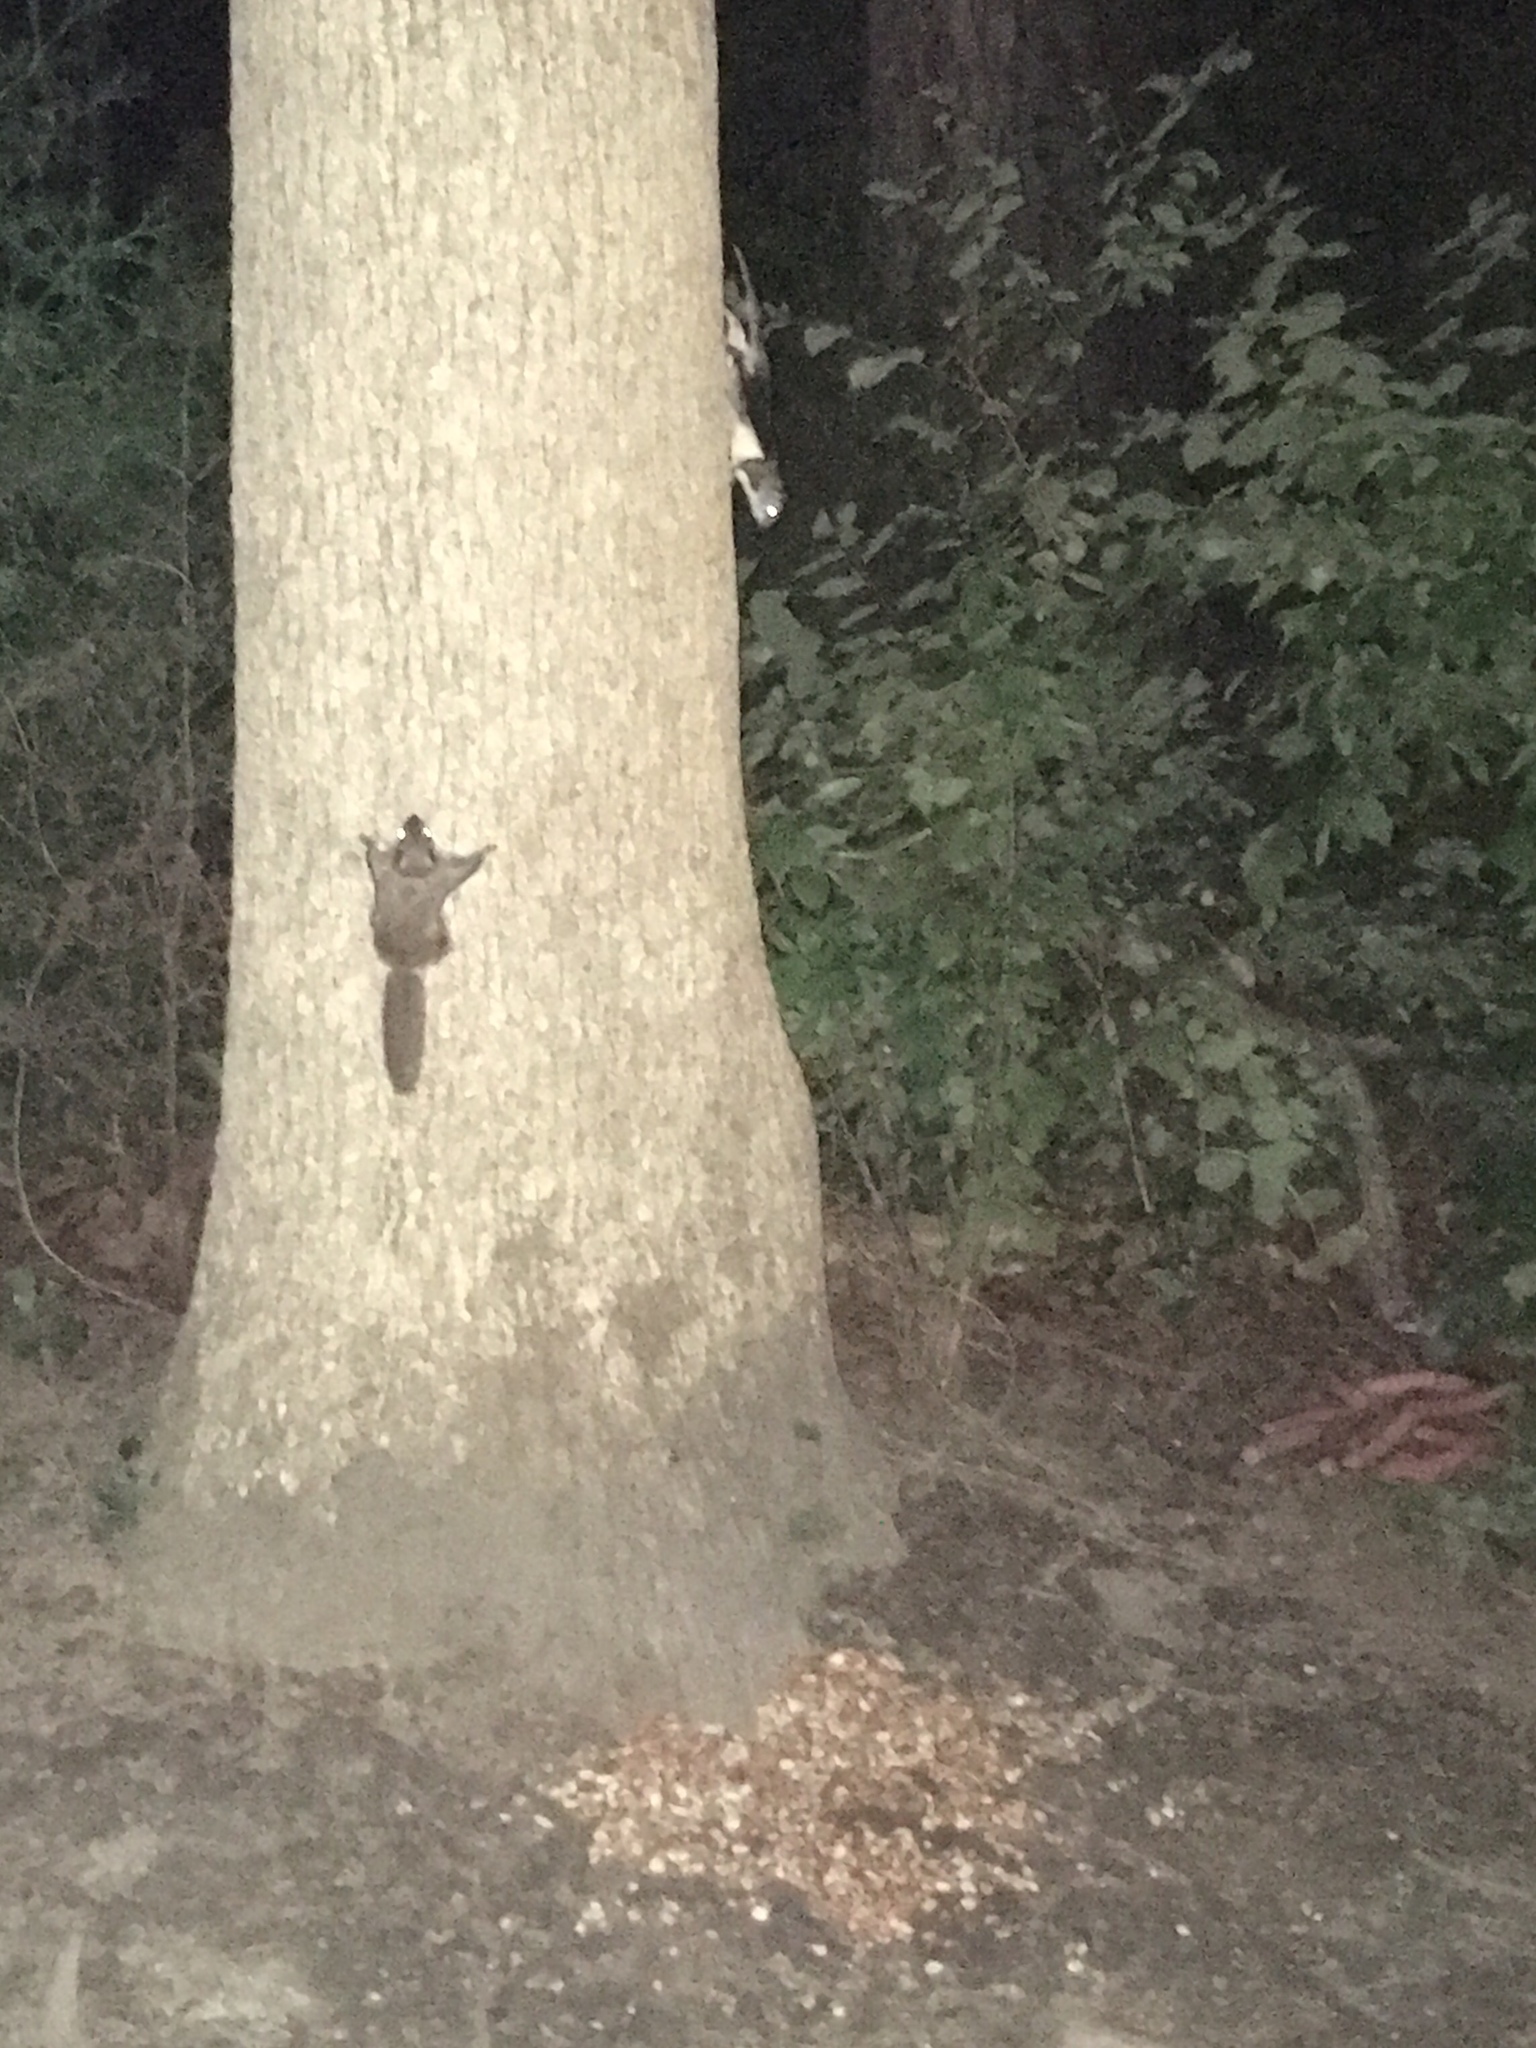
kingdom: Animalia
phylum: Chordata
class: Mammalia
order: Rodentia
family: Sciuridae
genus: Glaucomys
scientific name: Glaucomys volans
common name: Southern flying squirrel
